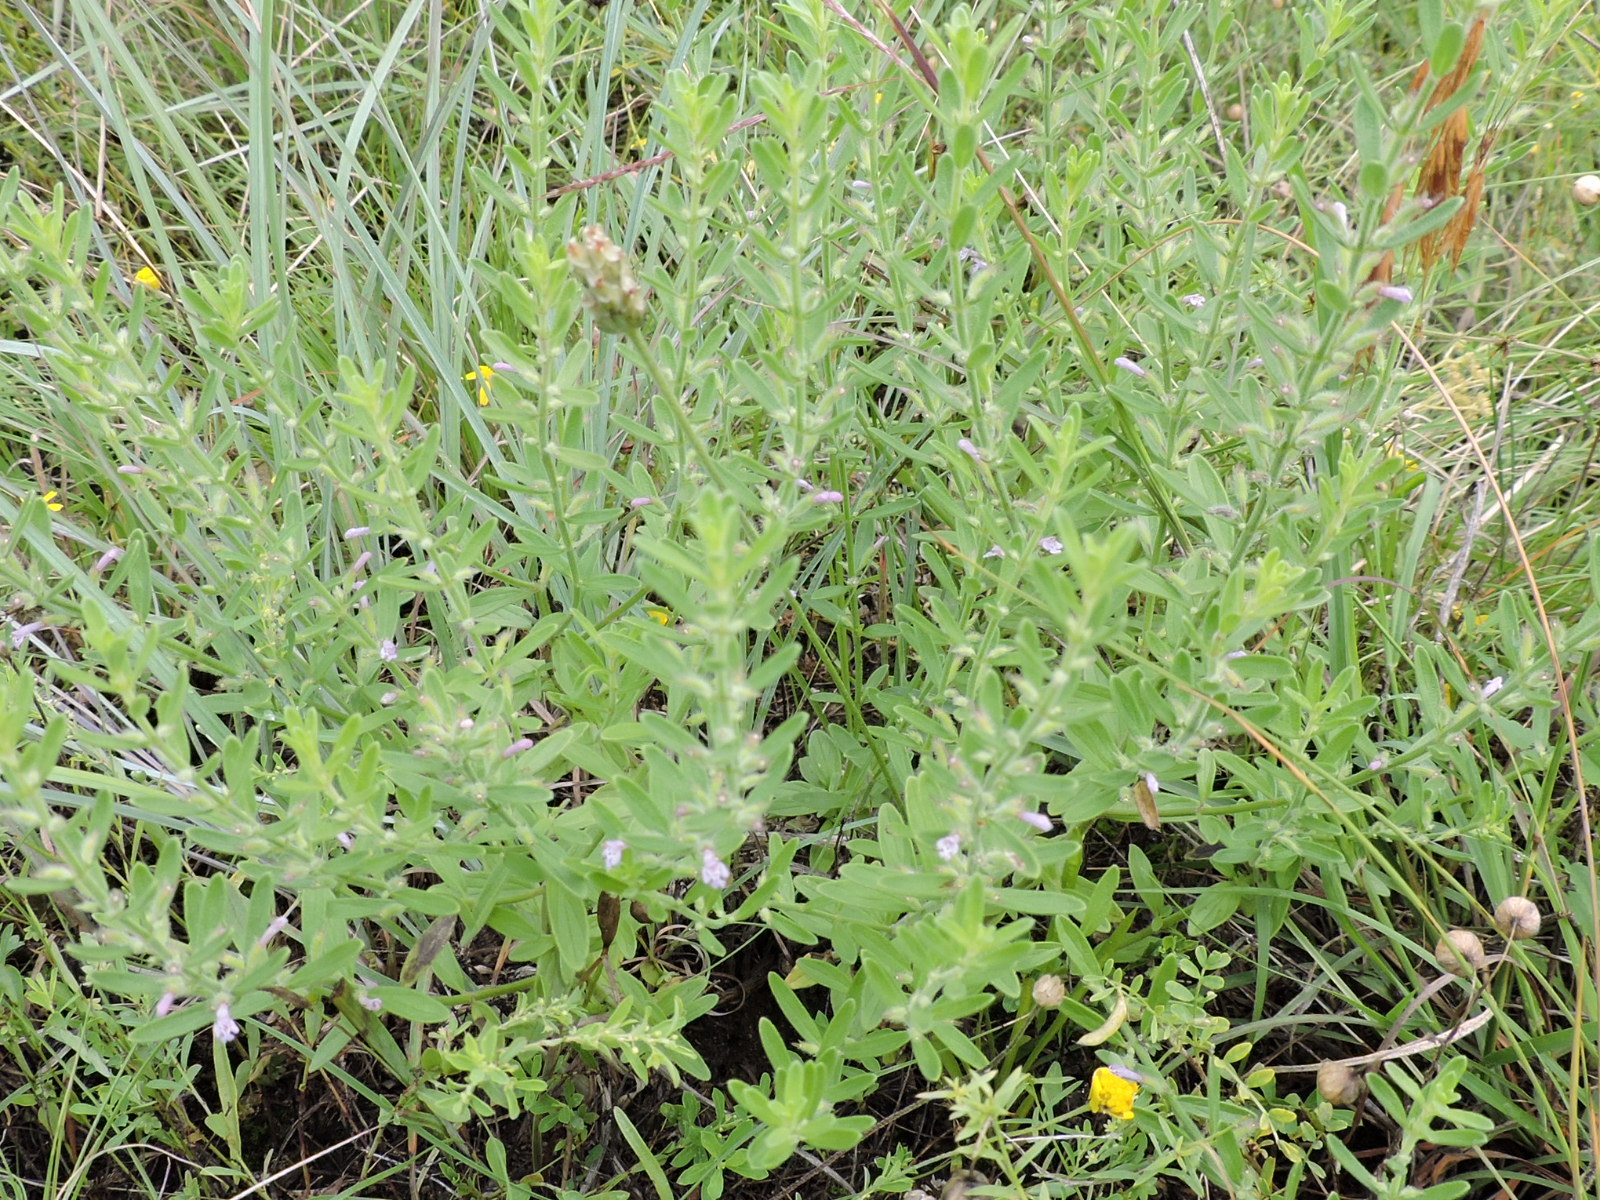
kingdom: Plantae
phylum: Tracheophyta
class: Magnoliopsida
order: Lamiales
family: Lamiaceae
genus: Hedeoma
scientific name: Hedeoma reverchonii
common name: Reverchon's false penny-royal
